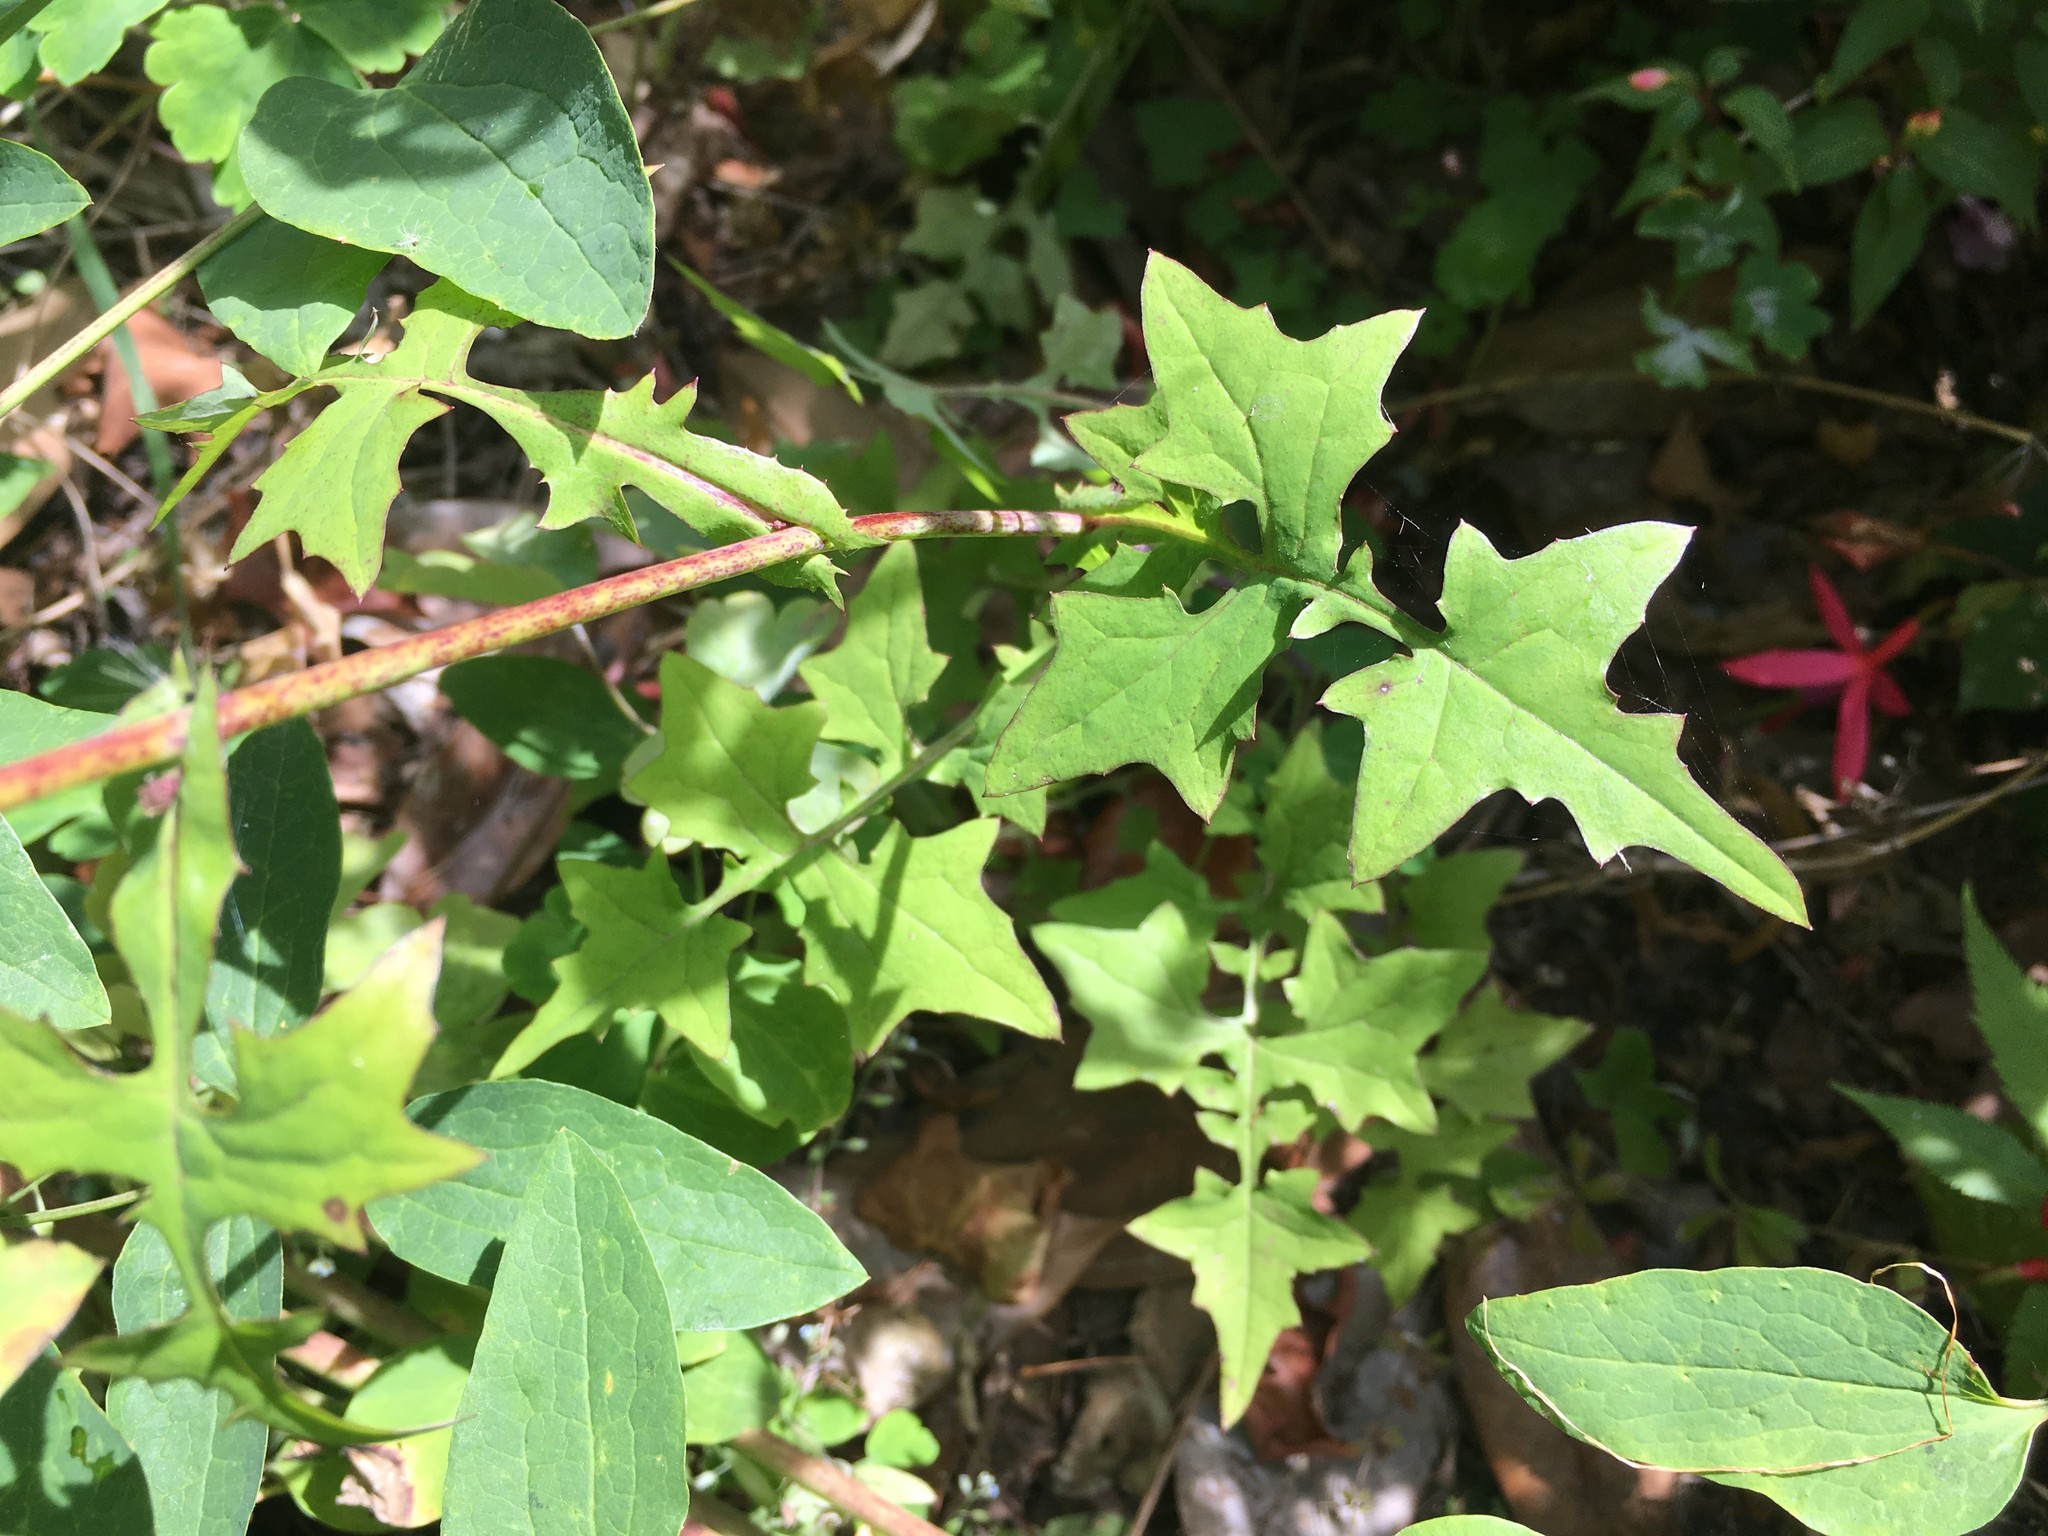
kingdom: Plantae
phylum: Tracheophyta
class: Magnoliopsida
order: Asterales
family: Asteraceae
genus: Mycelis
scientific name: Mycelis muralis
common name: Wall lettuce
